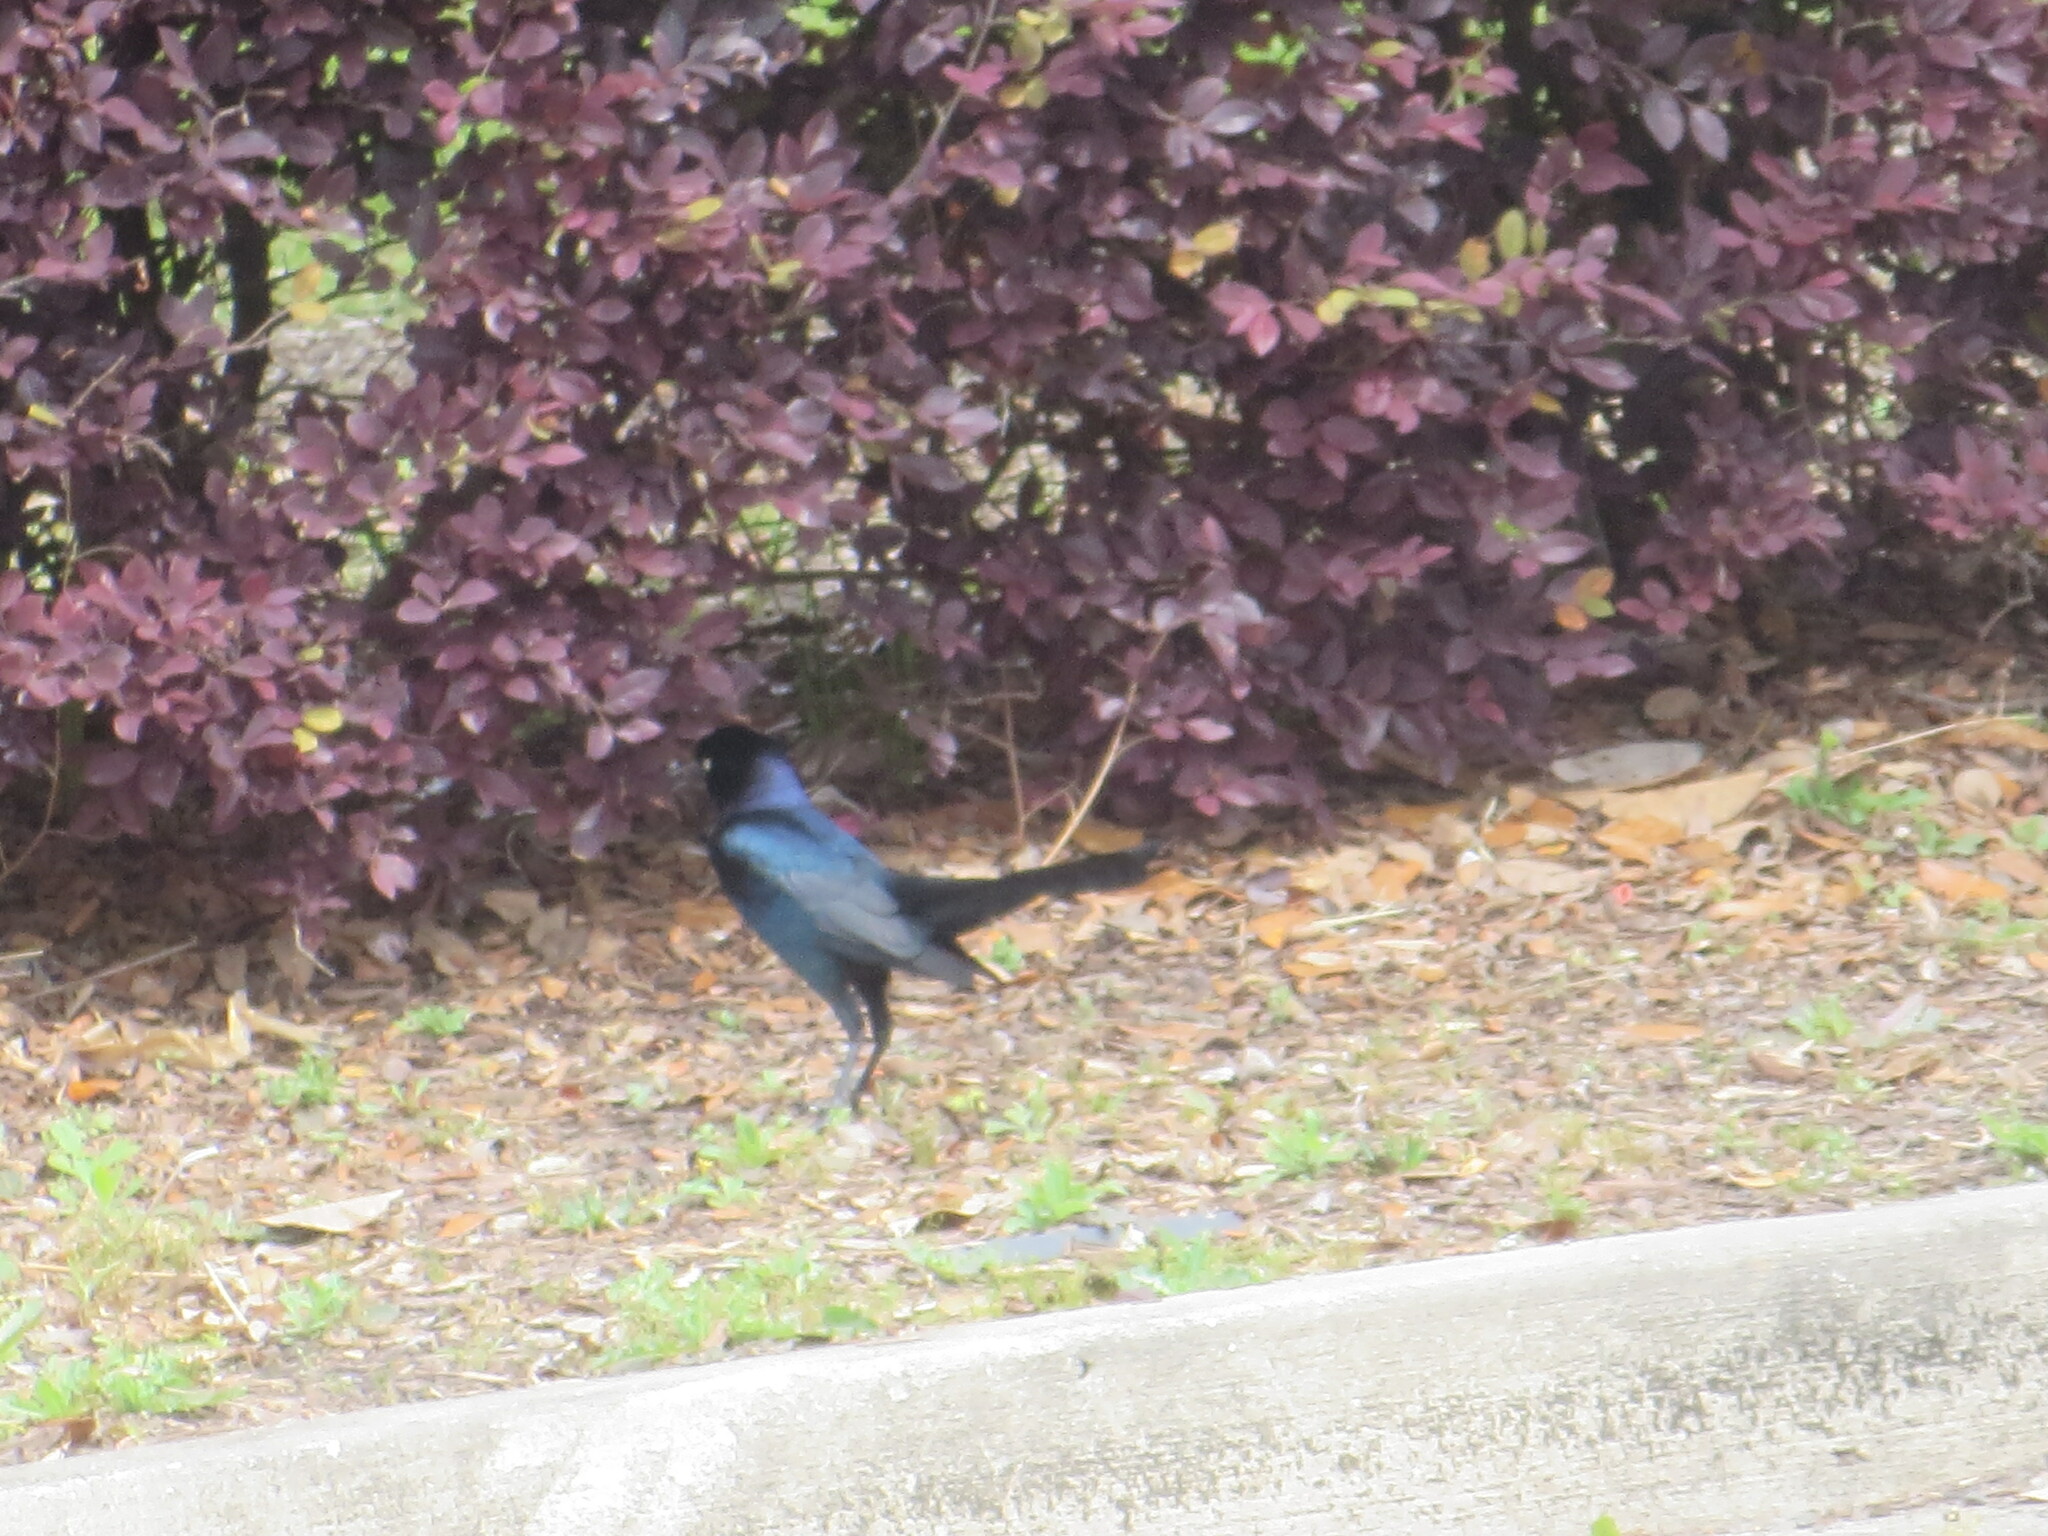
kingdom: Animalia
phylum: Chordata
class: Aves
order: Passeriformes
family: Icteridae
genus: Quiscalus
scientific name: Quiscalus major
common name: Boat-tailed grackle
